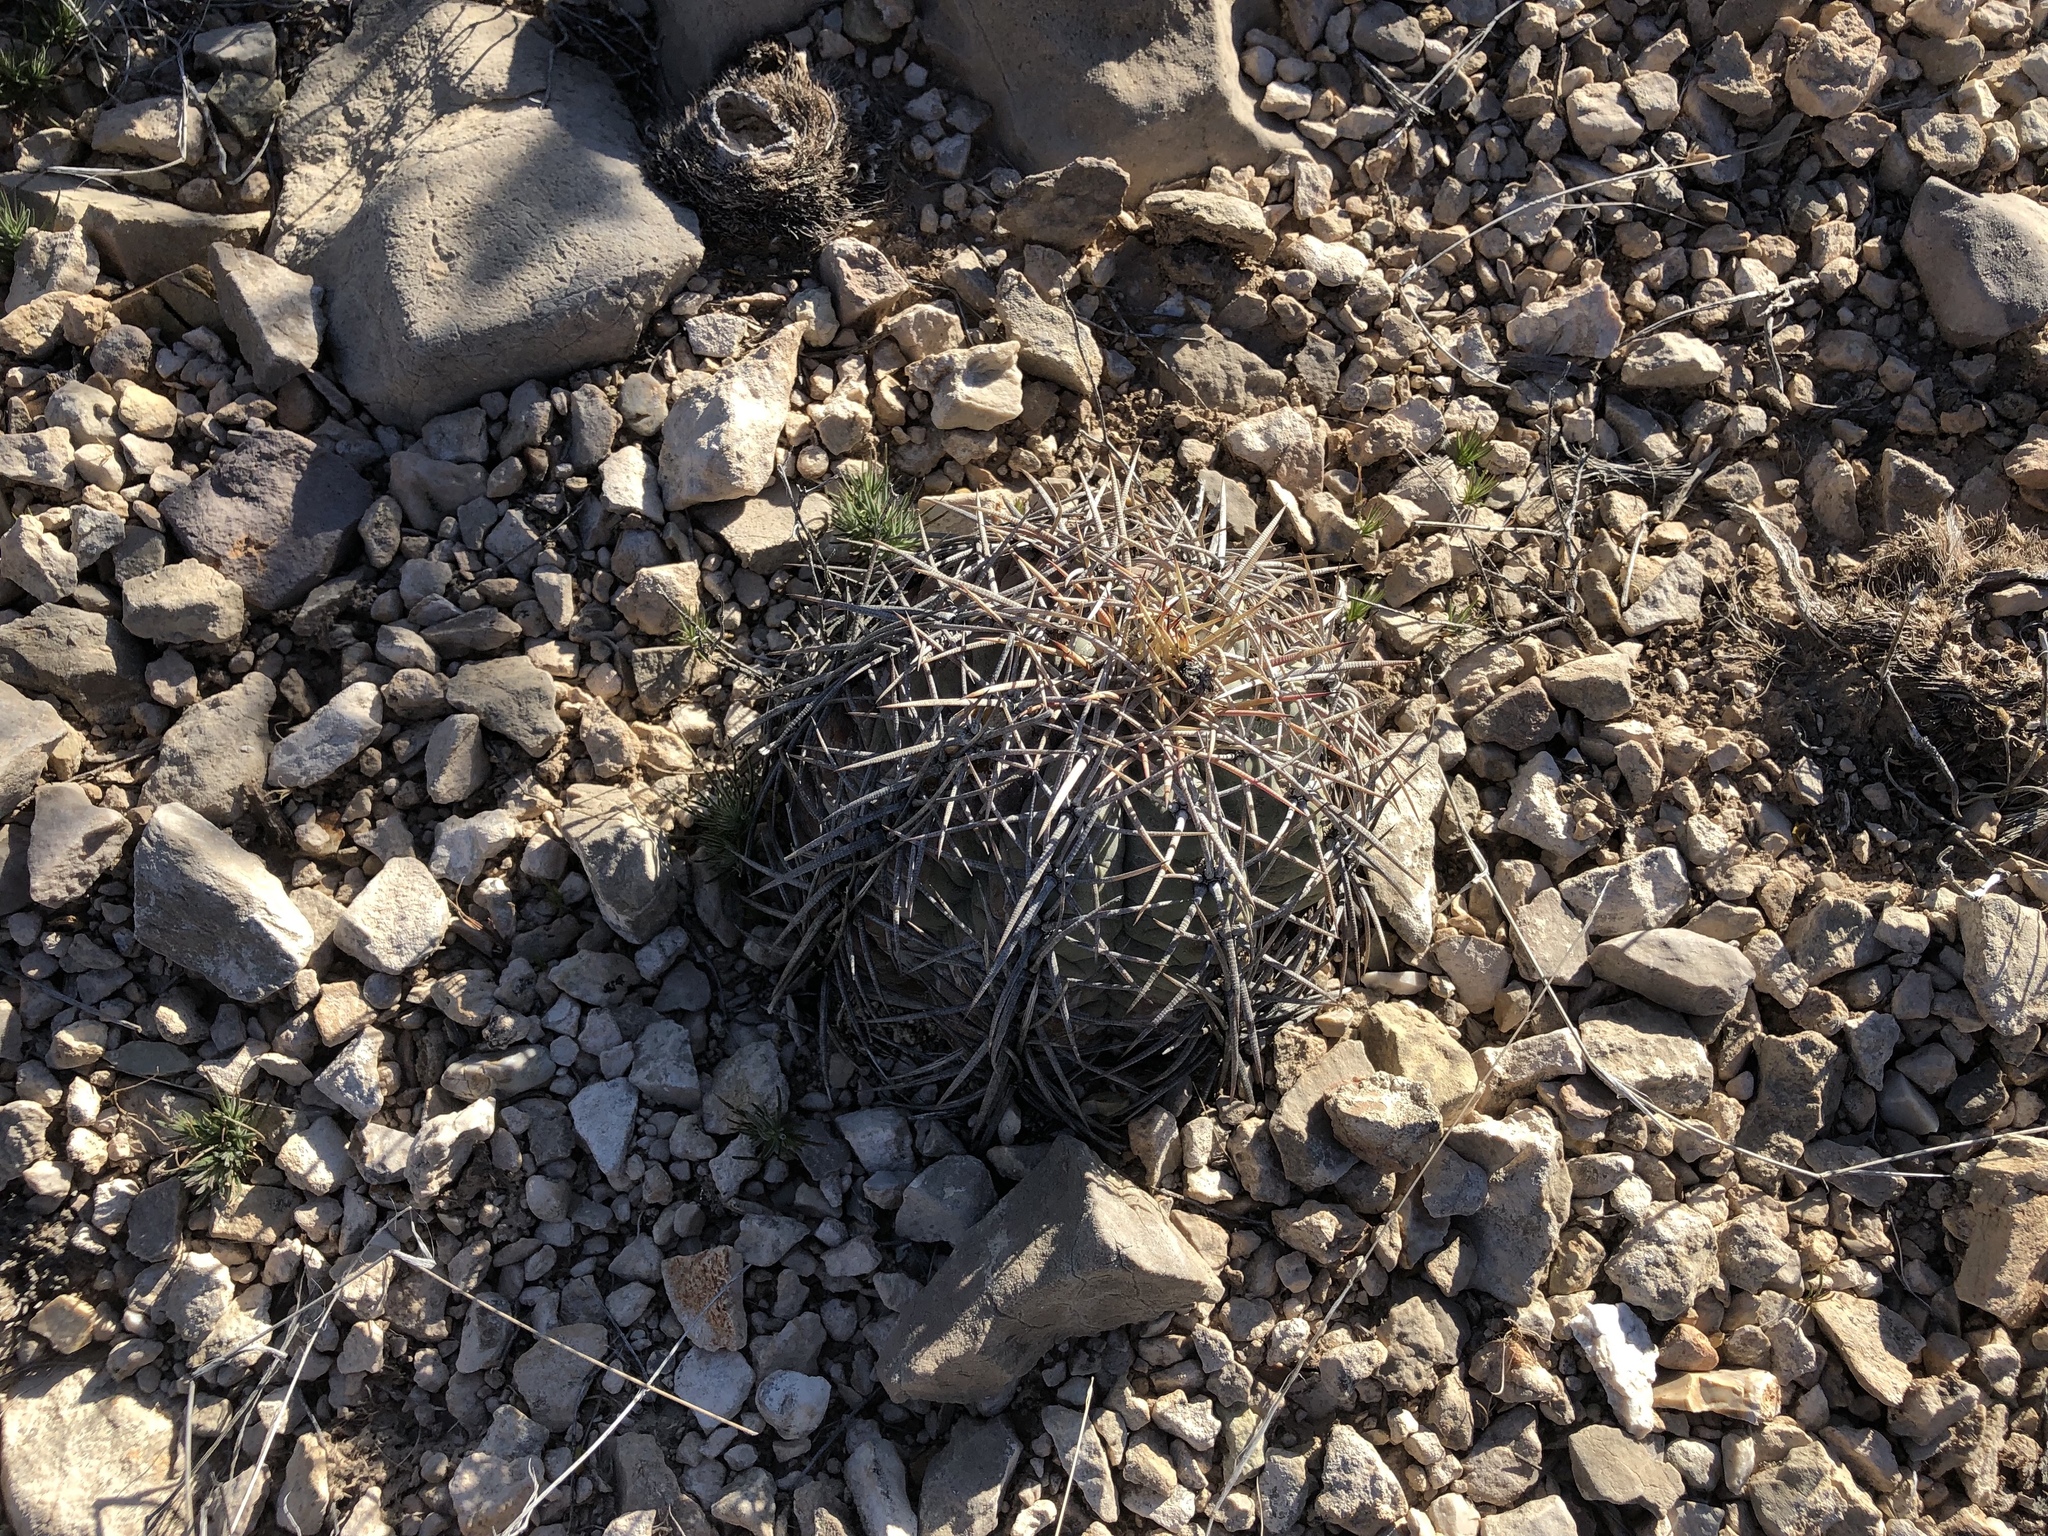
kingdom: Plantae
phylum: Tracheophyta
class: Magnoliopsida
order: Caryophyllales
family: Cactaceae
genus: Echinocactus
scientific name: Echinocactus horizonthalonius
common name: Devilshead
